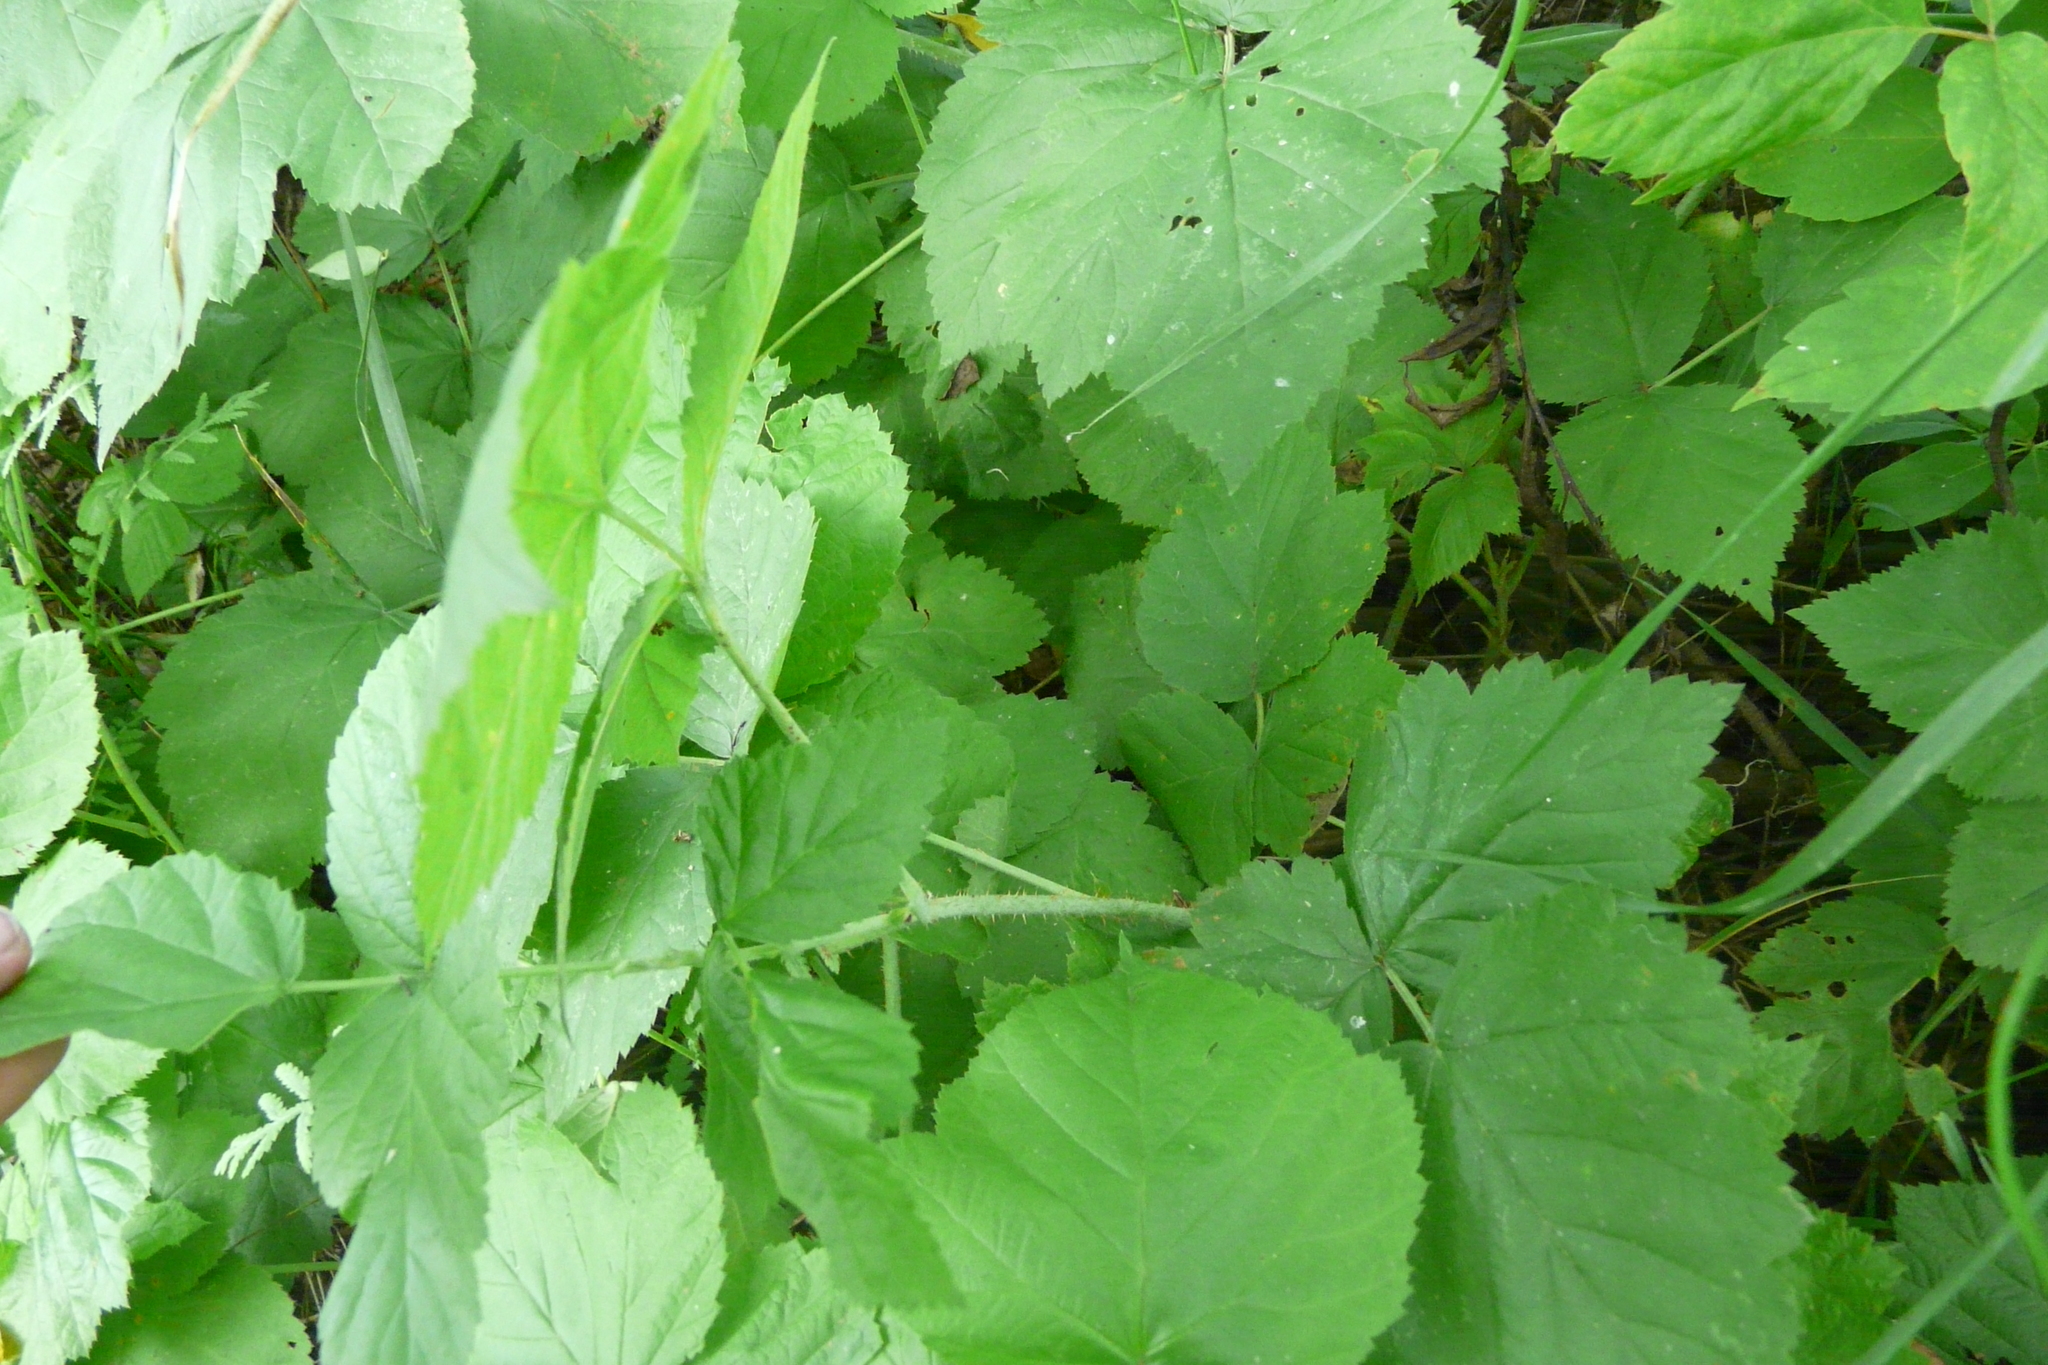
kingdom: Plantae
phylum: Tracheophyta
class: Magnoliopsida
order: Rosales
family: Rosaceae
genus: Rubus
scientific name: Rubus caesius
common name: Dewberry
